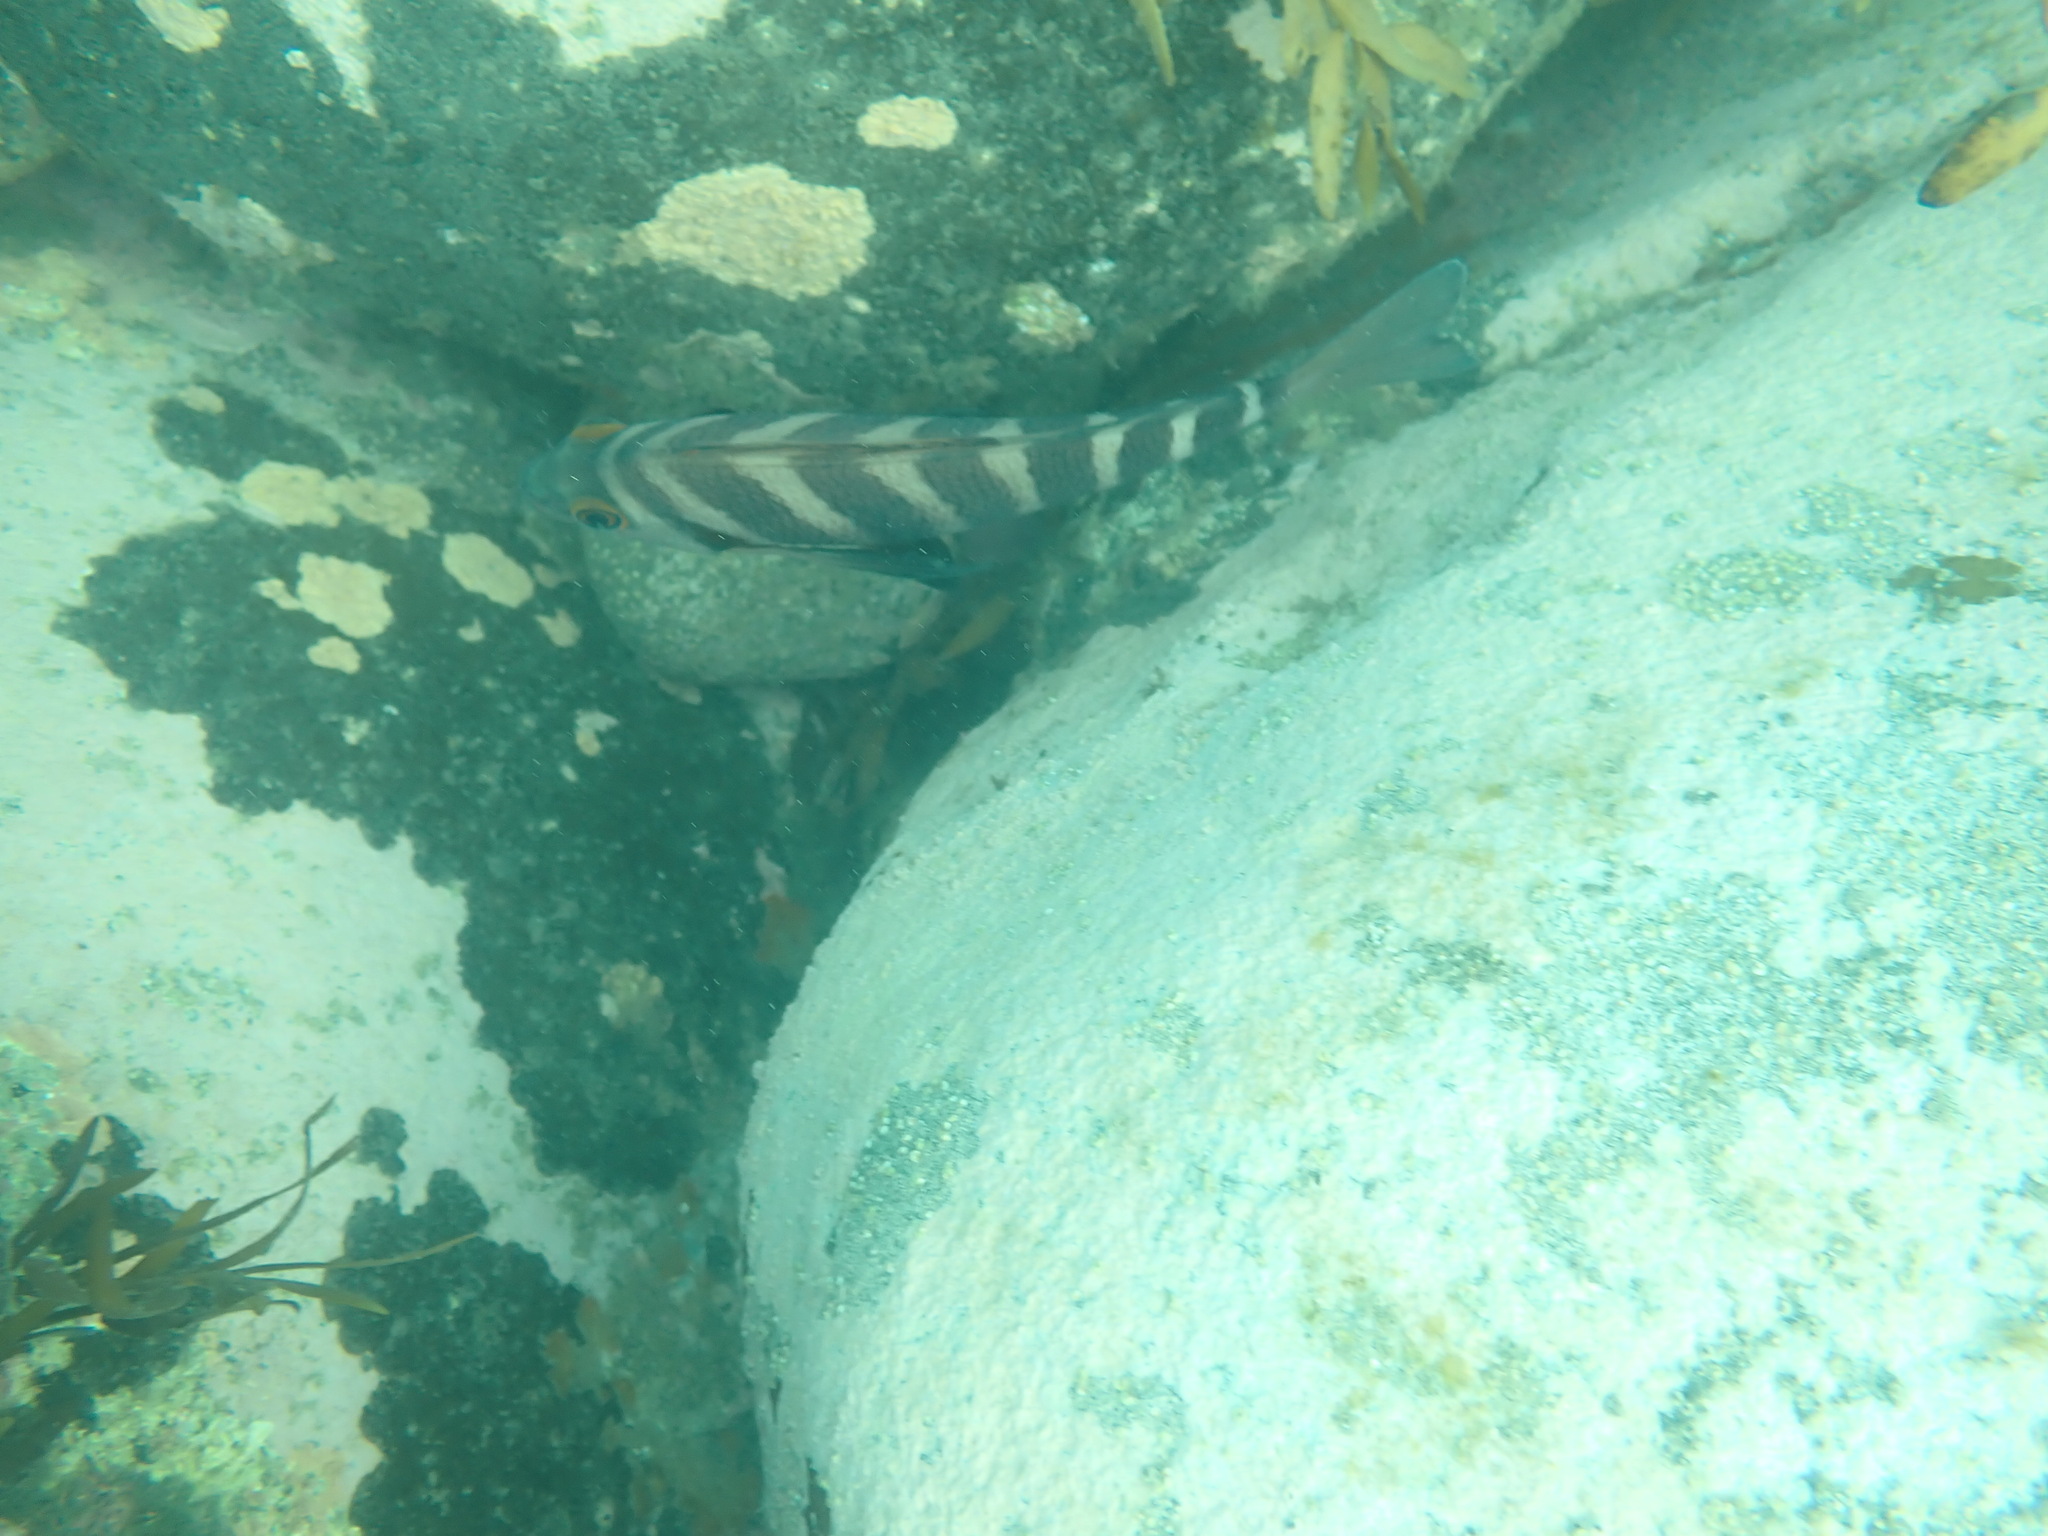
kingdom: Animalia
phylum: Chordata
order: Perciformes
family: Cheilodactylidae
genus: Cheilodactylus
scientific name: Cheilodactylus spectabilis
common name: Red moki
